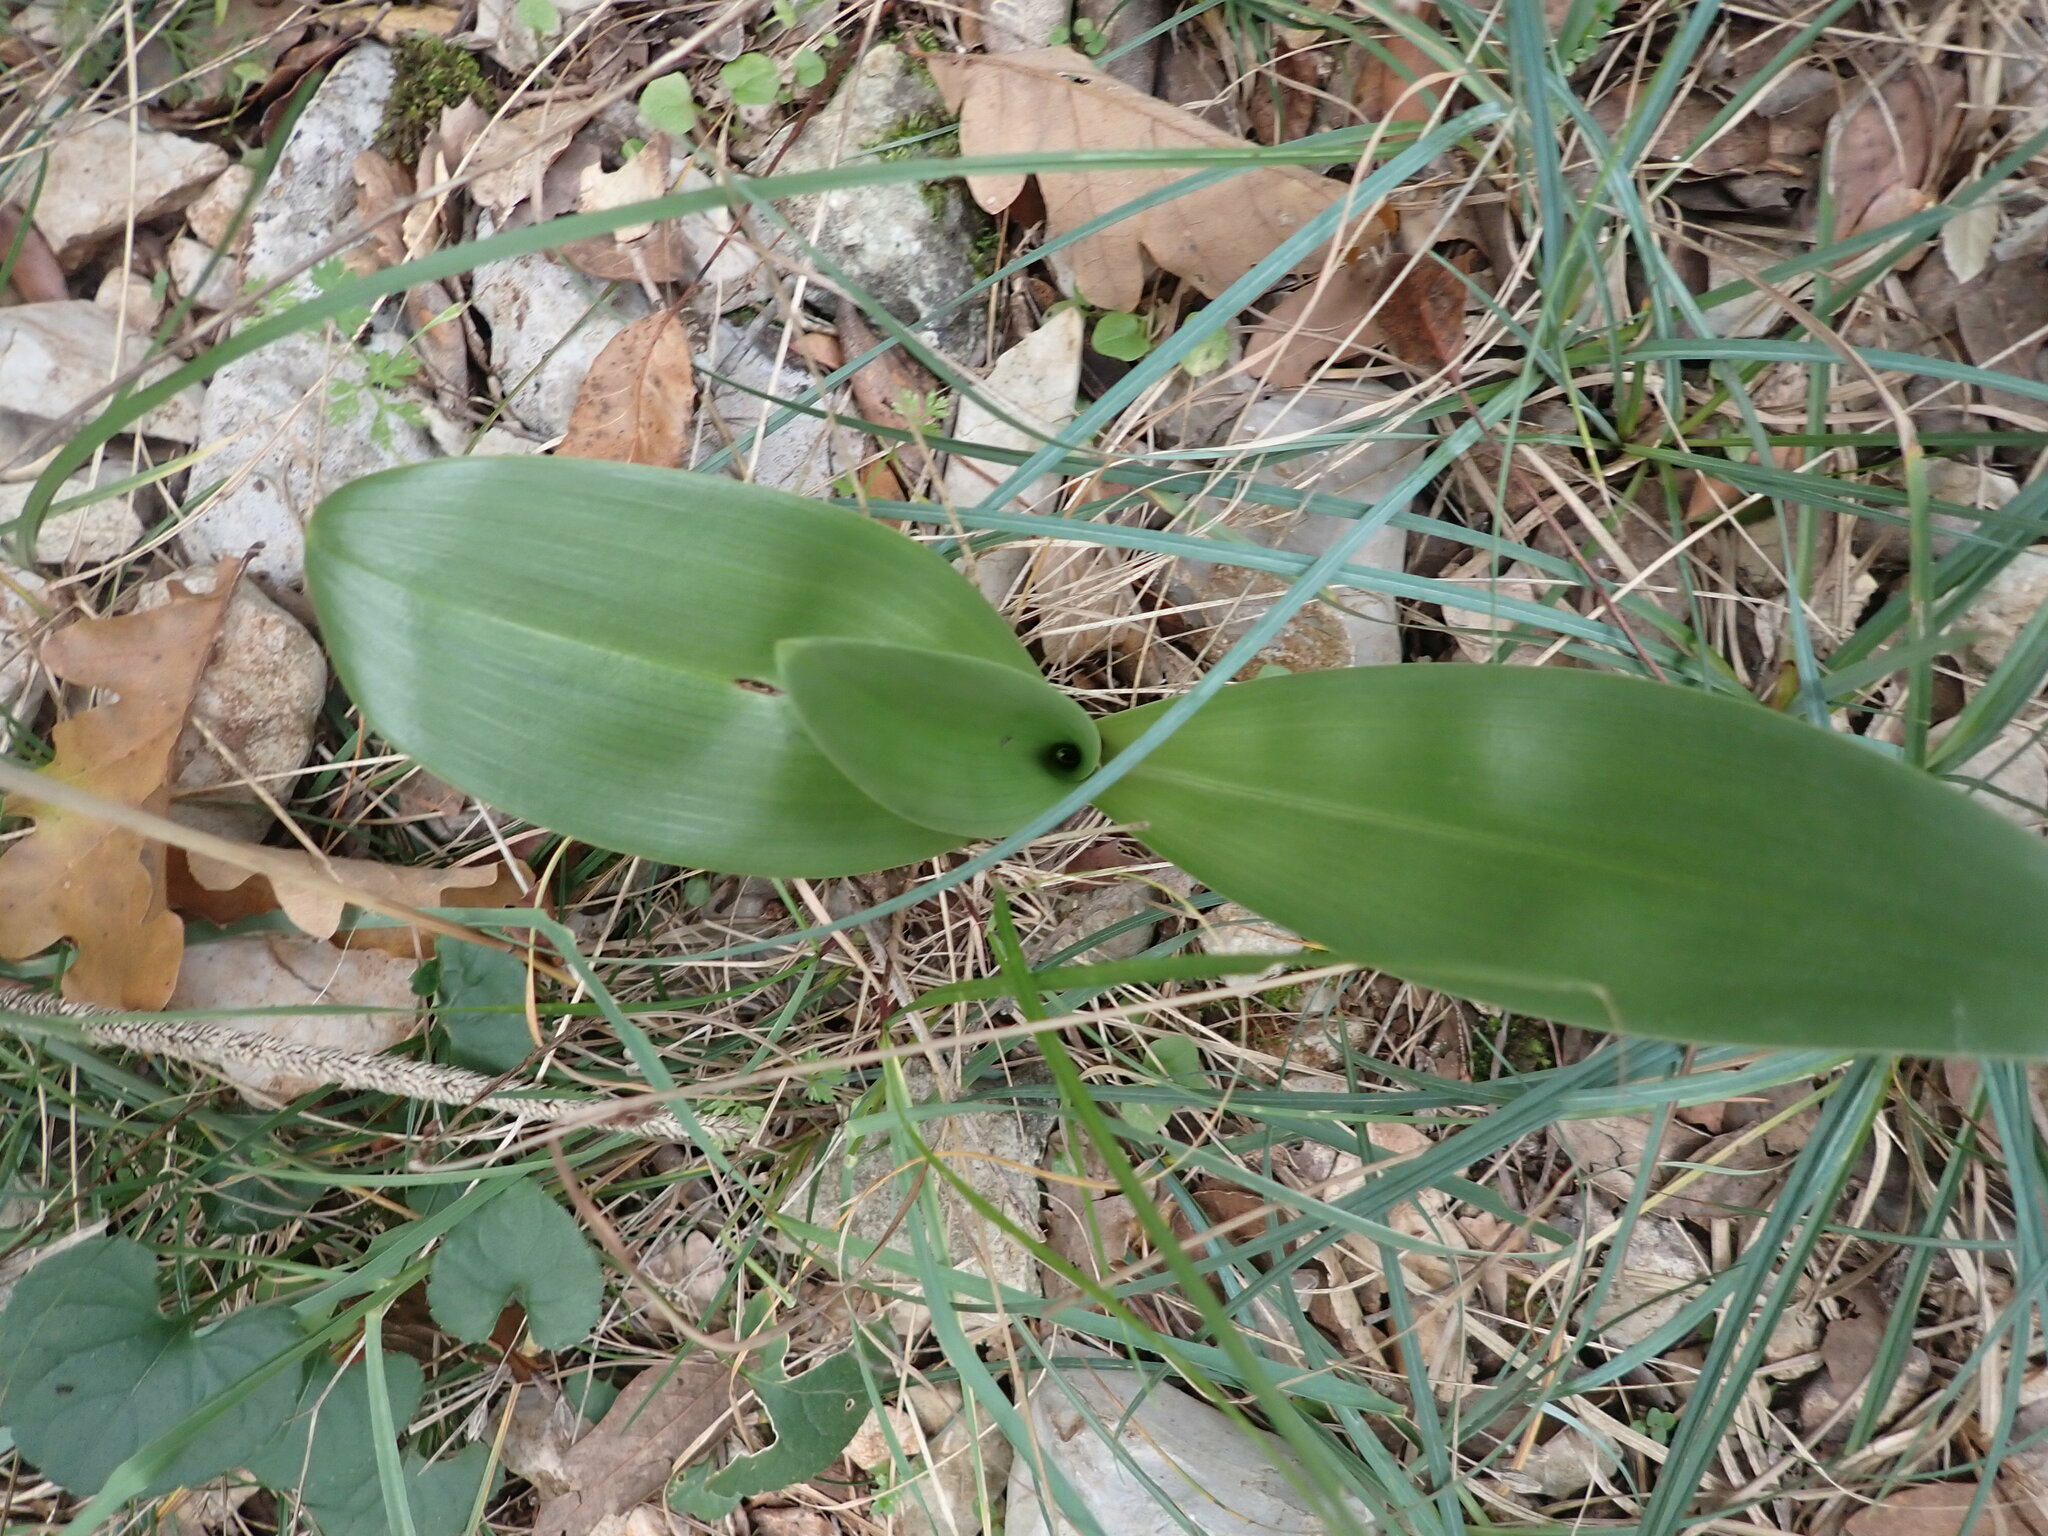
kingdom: Plantae
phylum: Tracheophyta
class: Liliopsida
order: Asparagales
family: Orchidaceae
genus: Himantoglossum
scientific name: Himantoglossum robertianum
